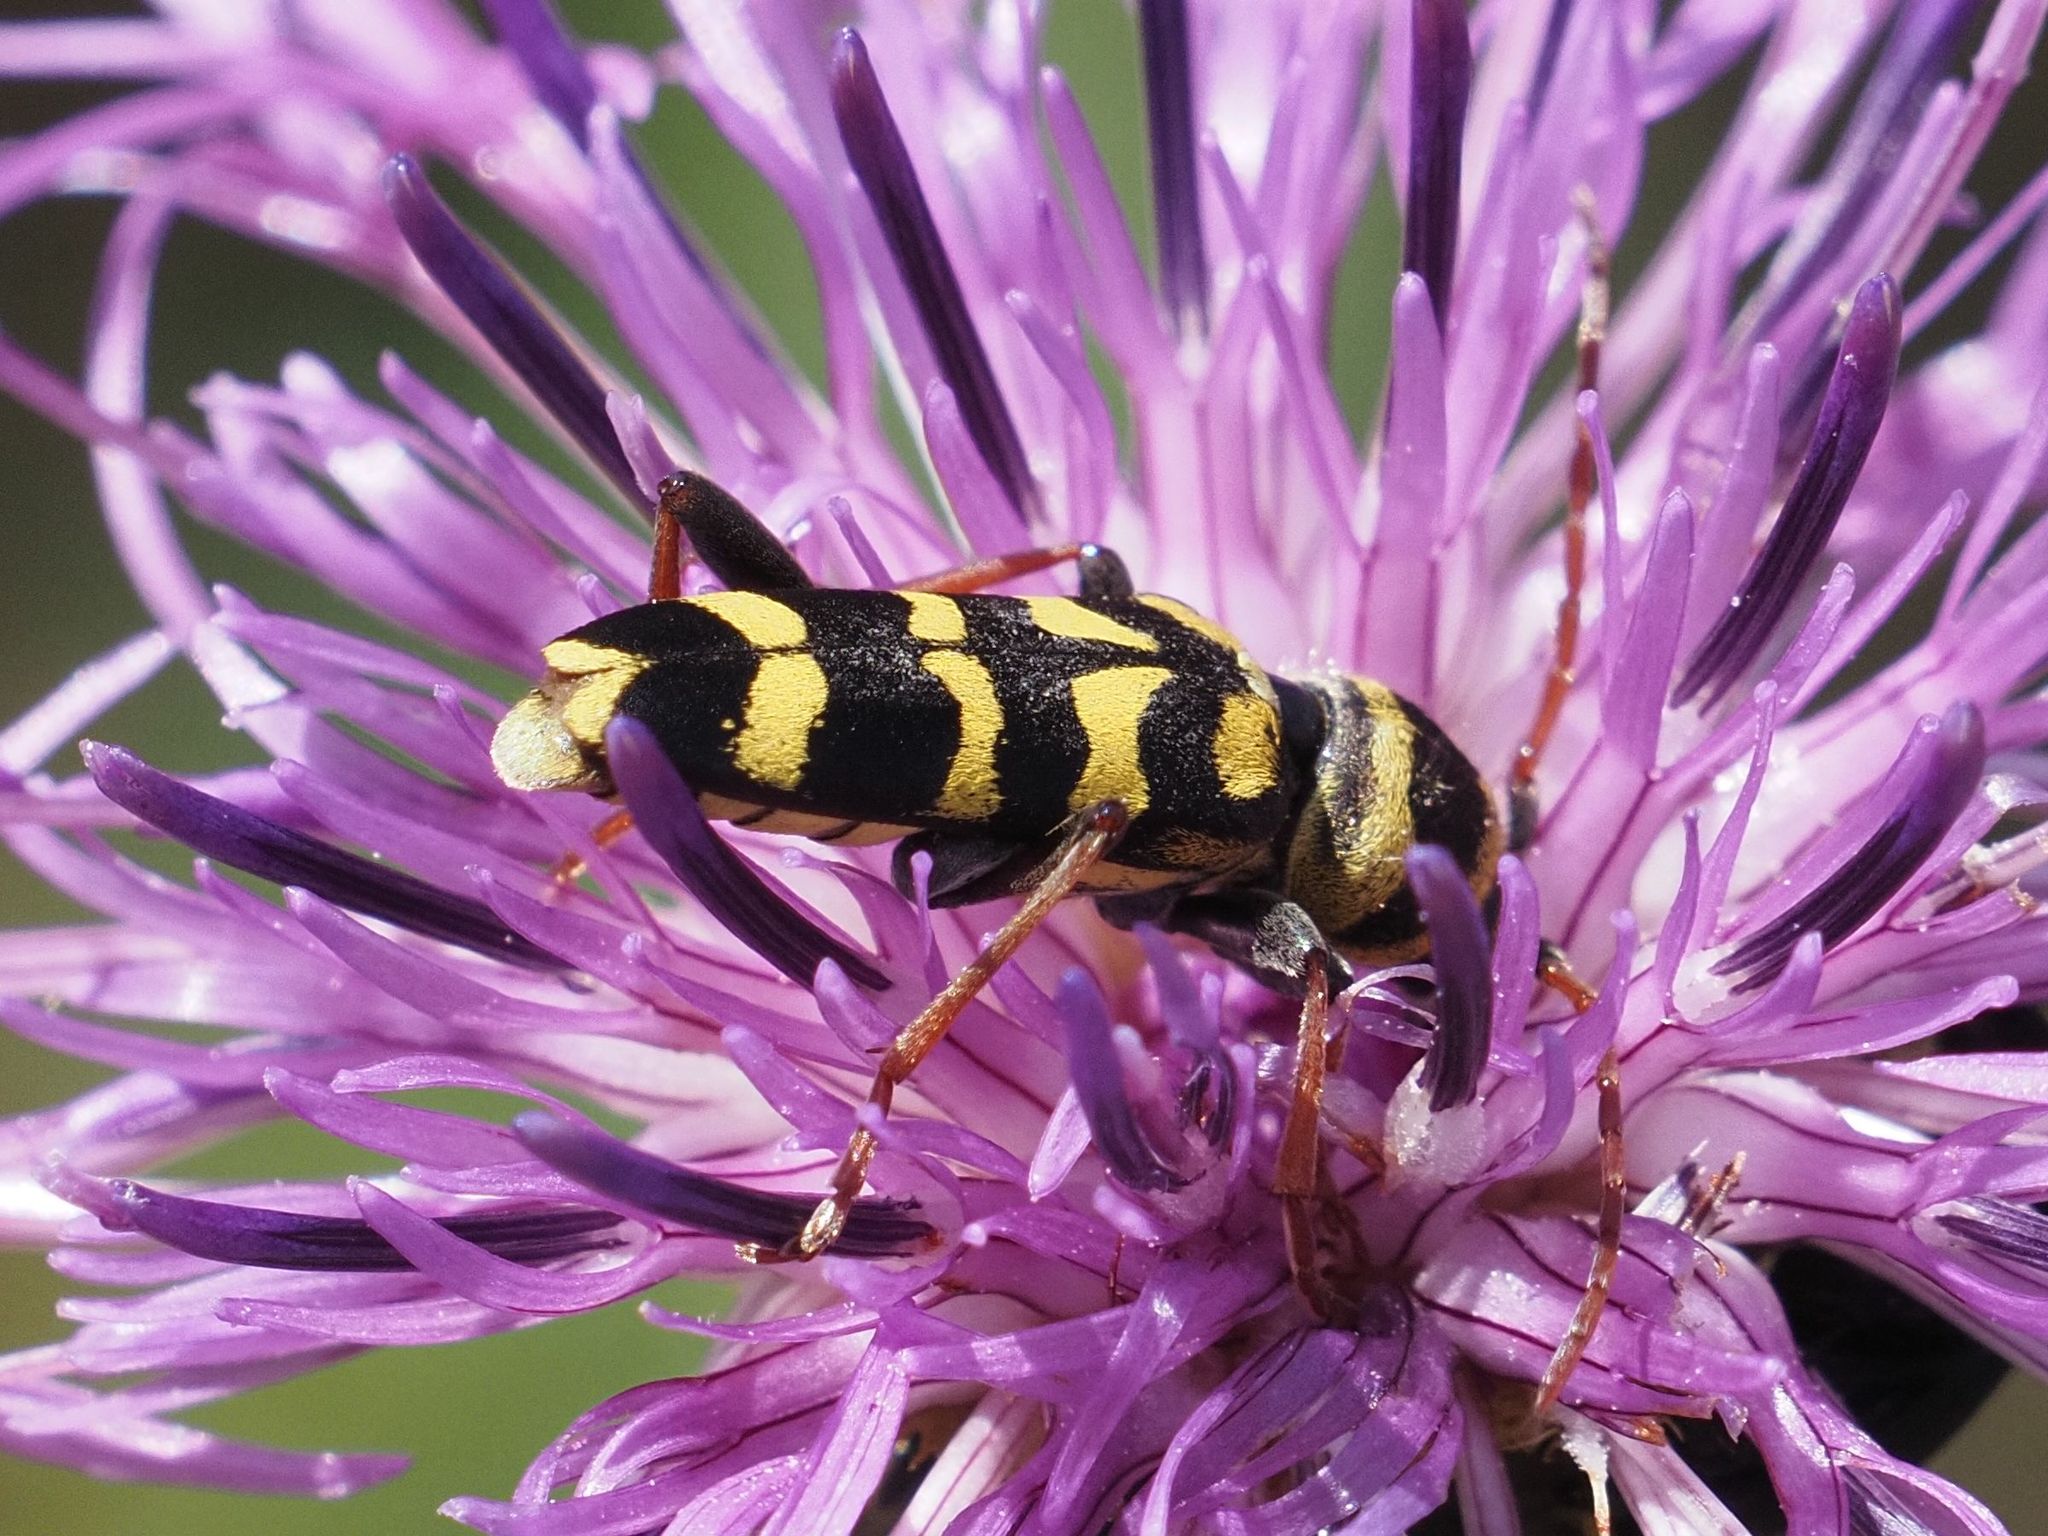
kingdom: Animalia
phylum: Arthropoda
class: Insecta
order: Coleoptera
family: Cerambycidae
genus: Plagionotus
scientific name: Plagionotus floralis
